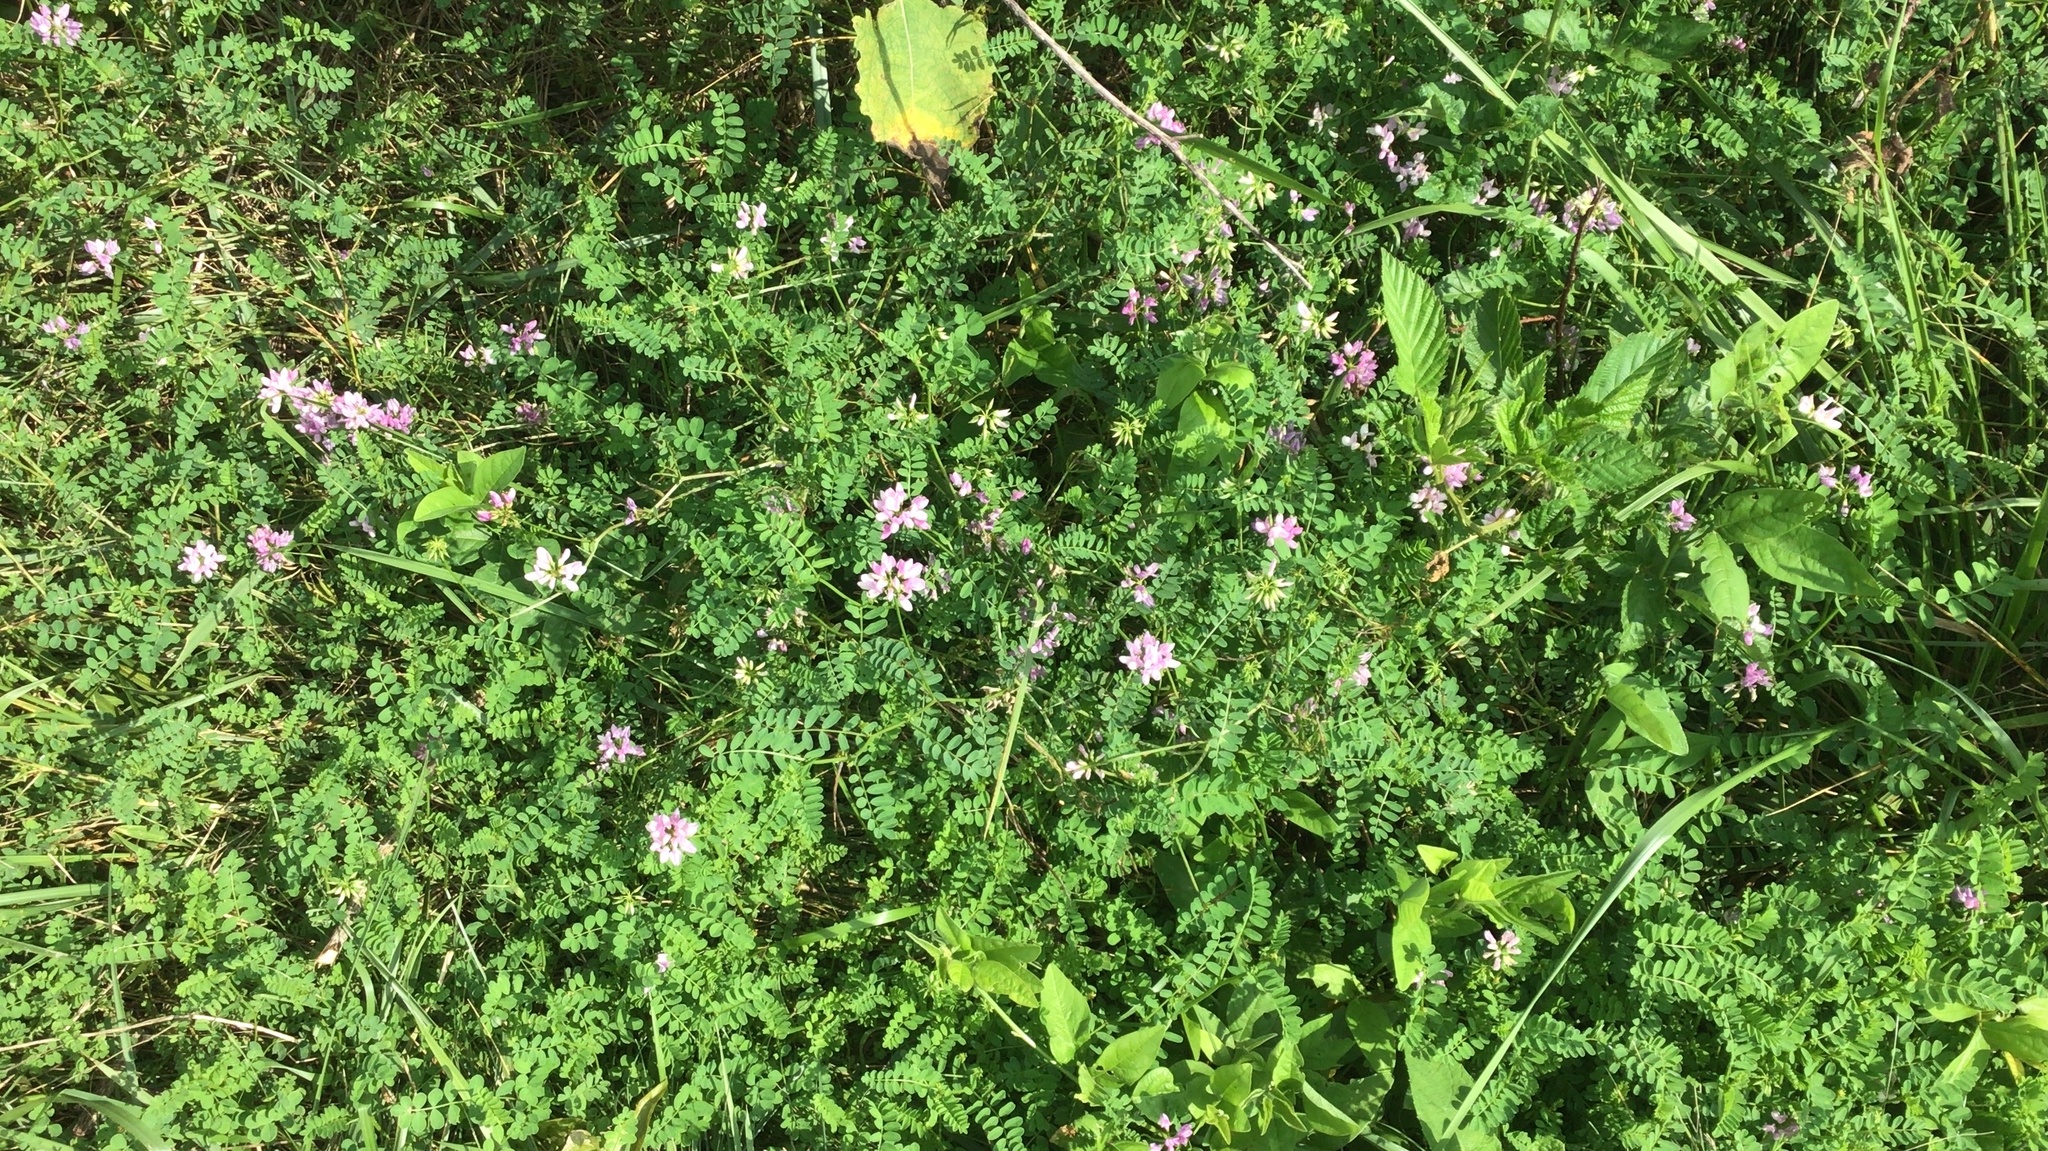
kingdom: Plantae
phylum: Tracheophyta
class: Magnoliopsida
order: Fabales
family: Fabaceae
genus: Coronilla
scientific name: Coronilla varia
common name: Crownvetch
